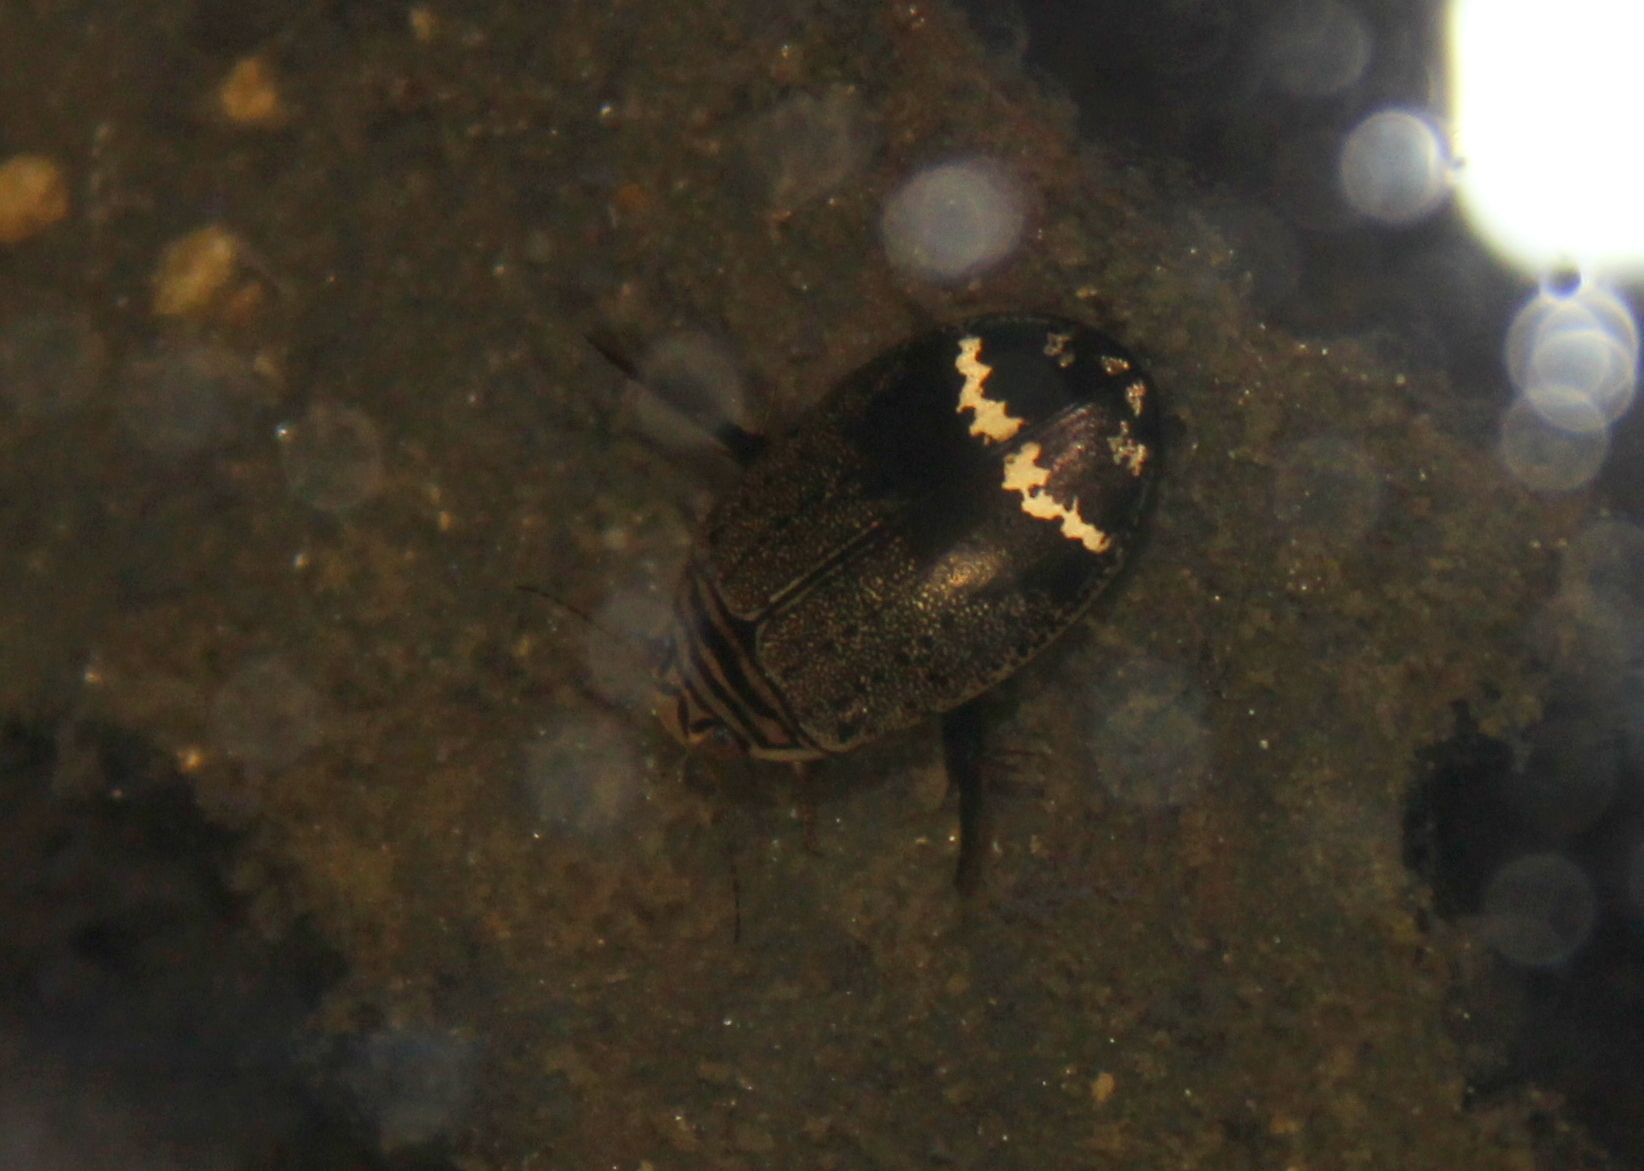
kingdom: Animalia
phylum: Arthropoda
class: Insecta
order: Coleoptera
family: Dytiscidae
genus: Acilius
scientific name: Acilius mediatus
